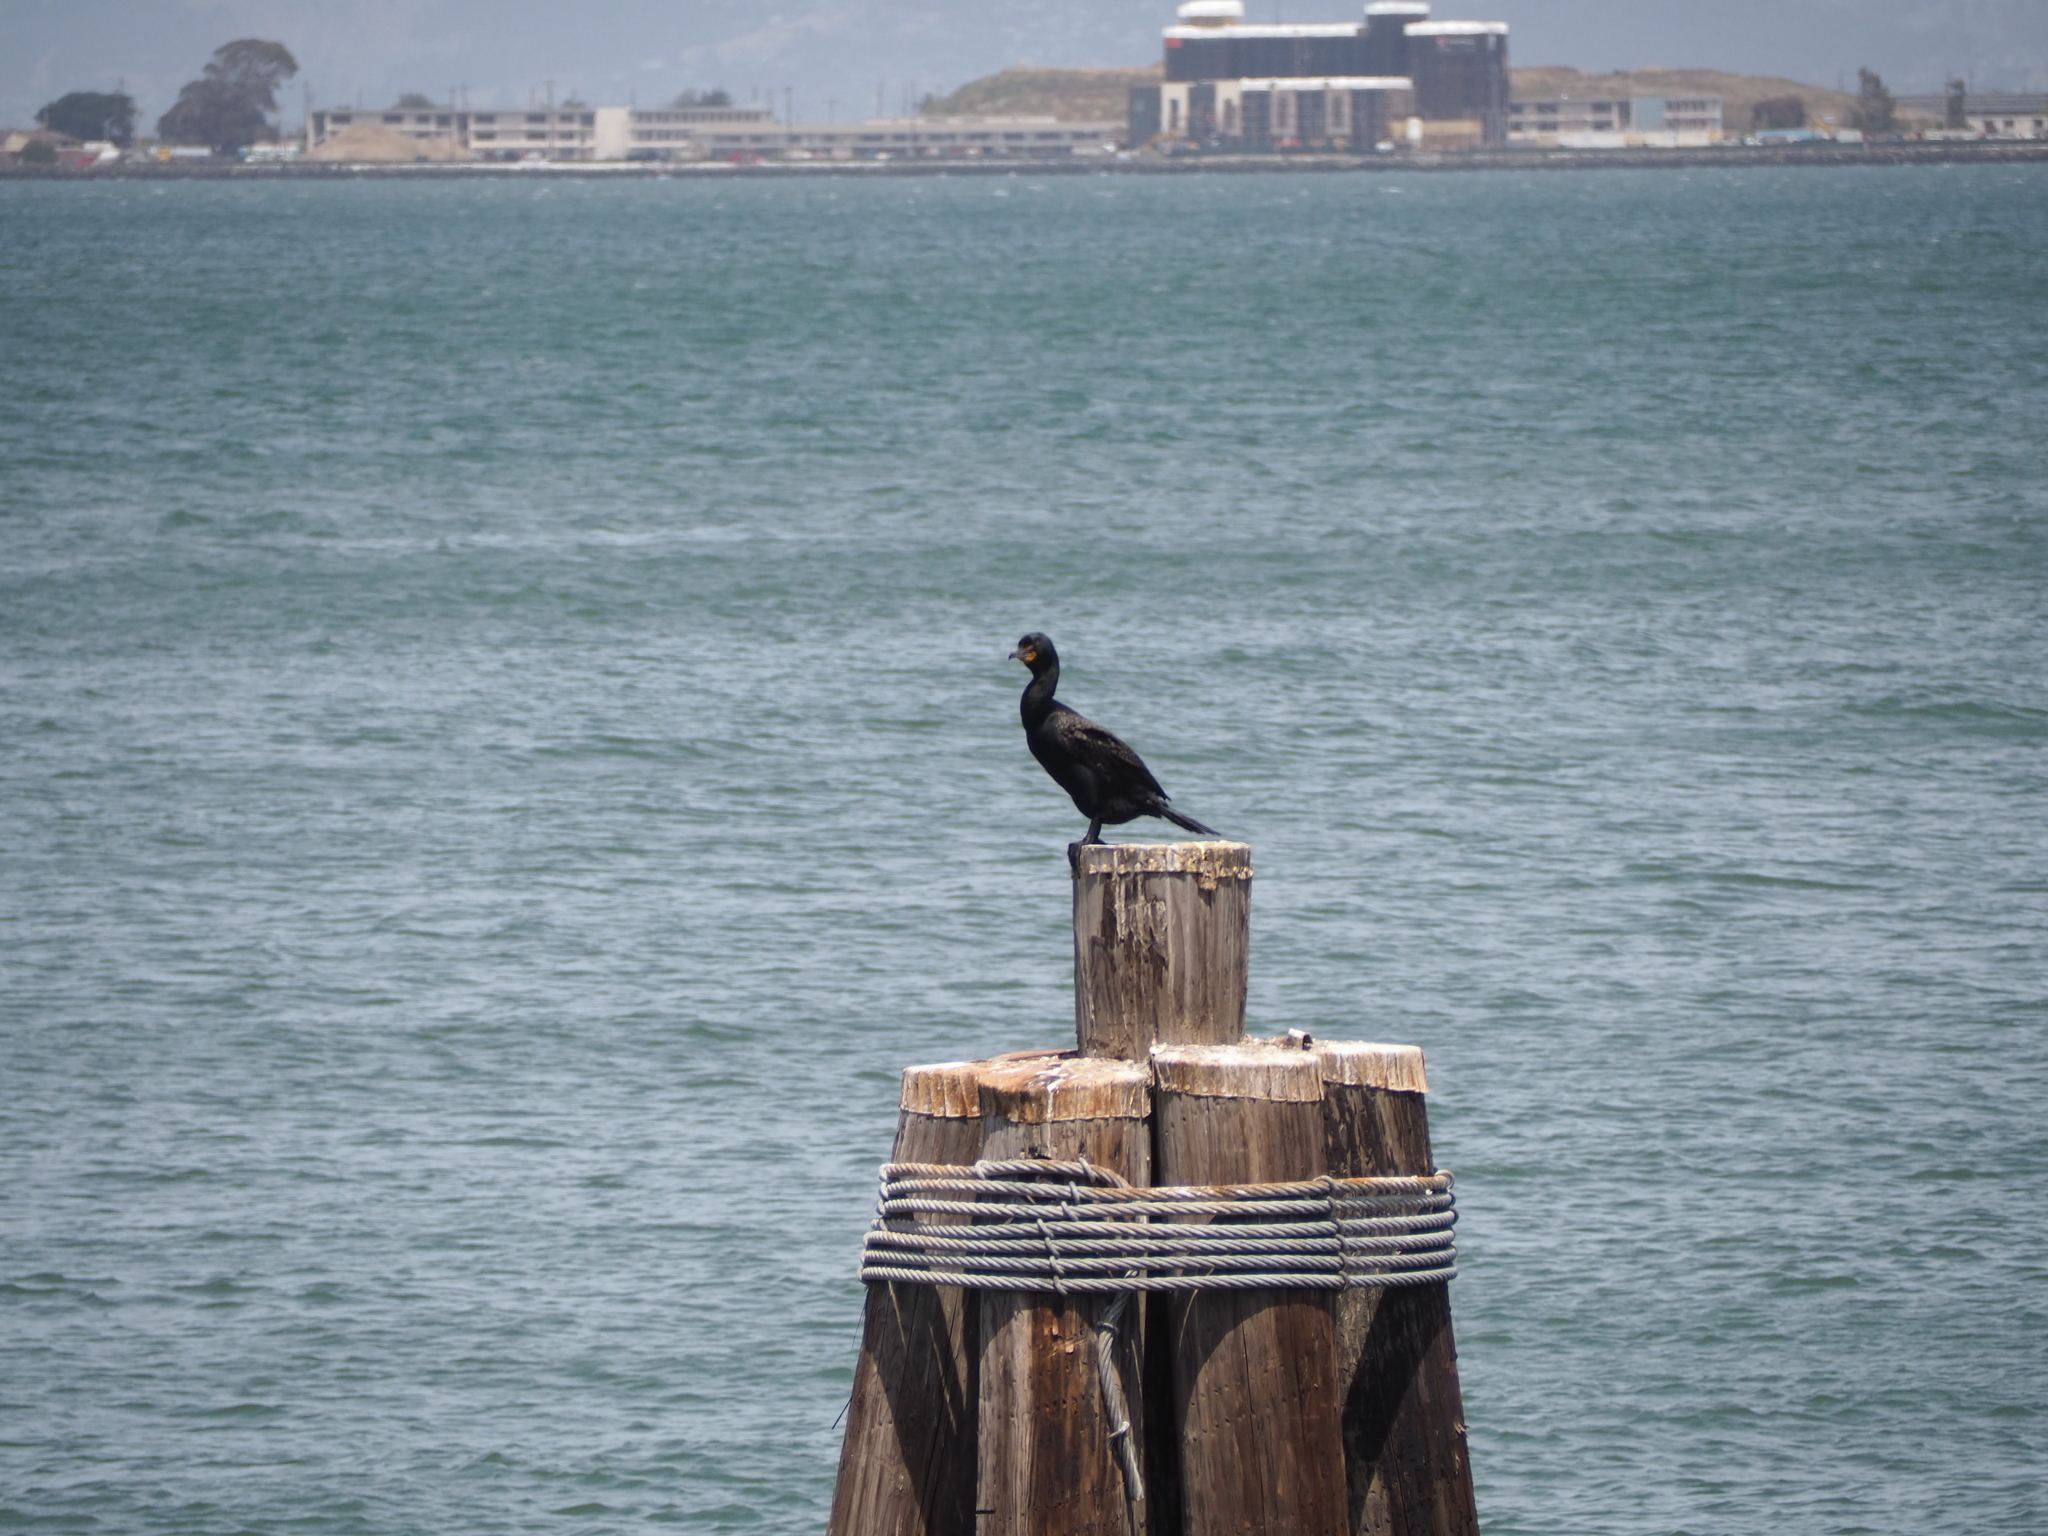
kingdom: Animalia
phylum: Chordata
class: Aves
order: Suliformes
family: Phalacrocoracidae
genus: Phalacrocorax
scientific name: Phalacrocorax auritus
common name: Double-crested cormorant
